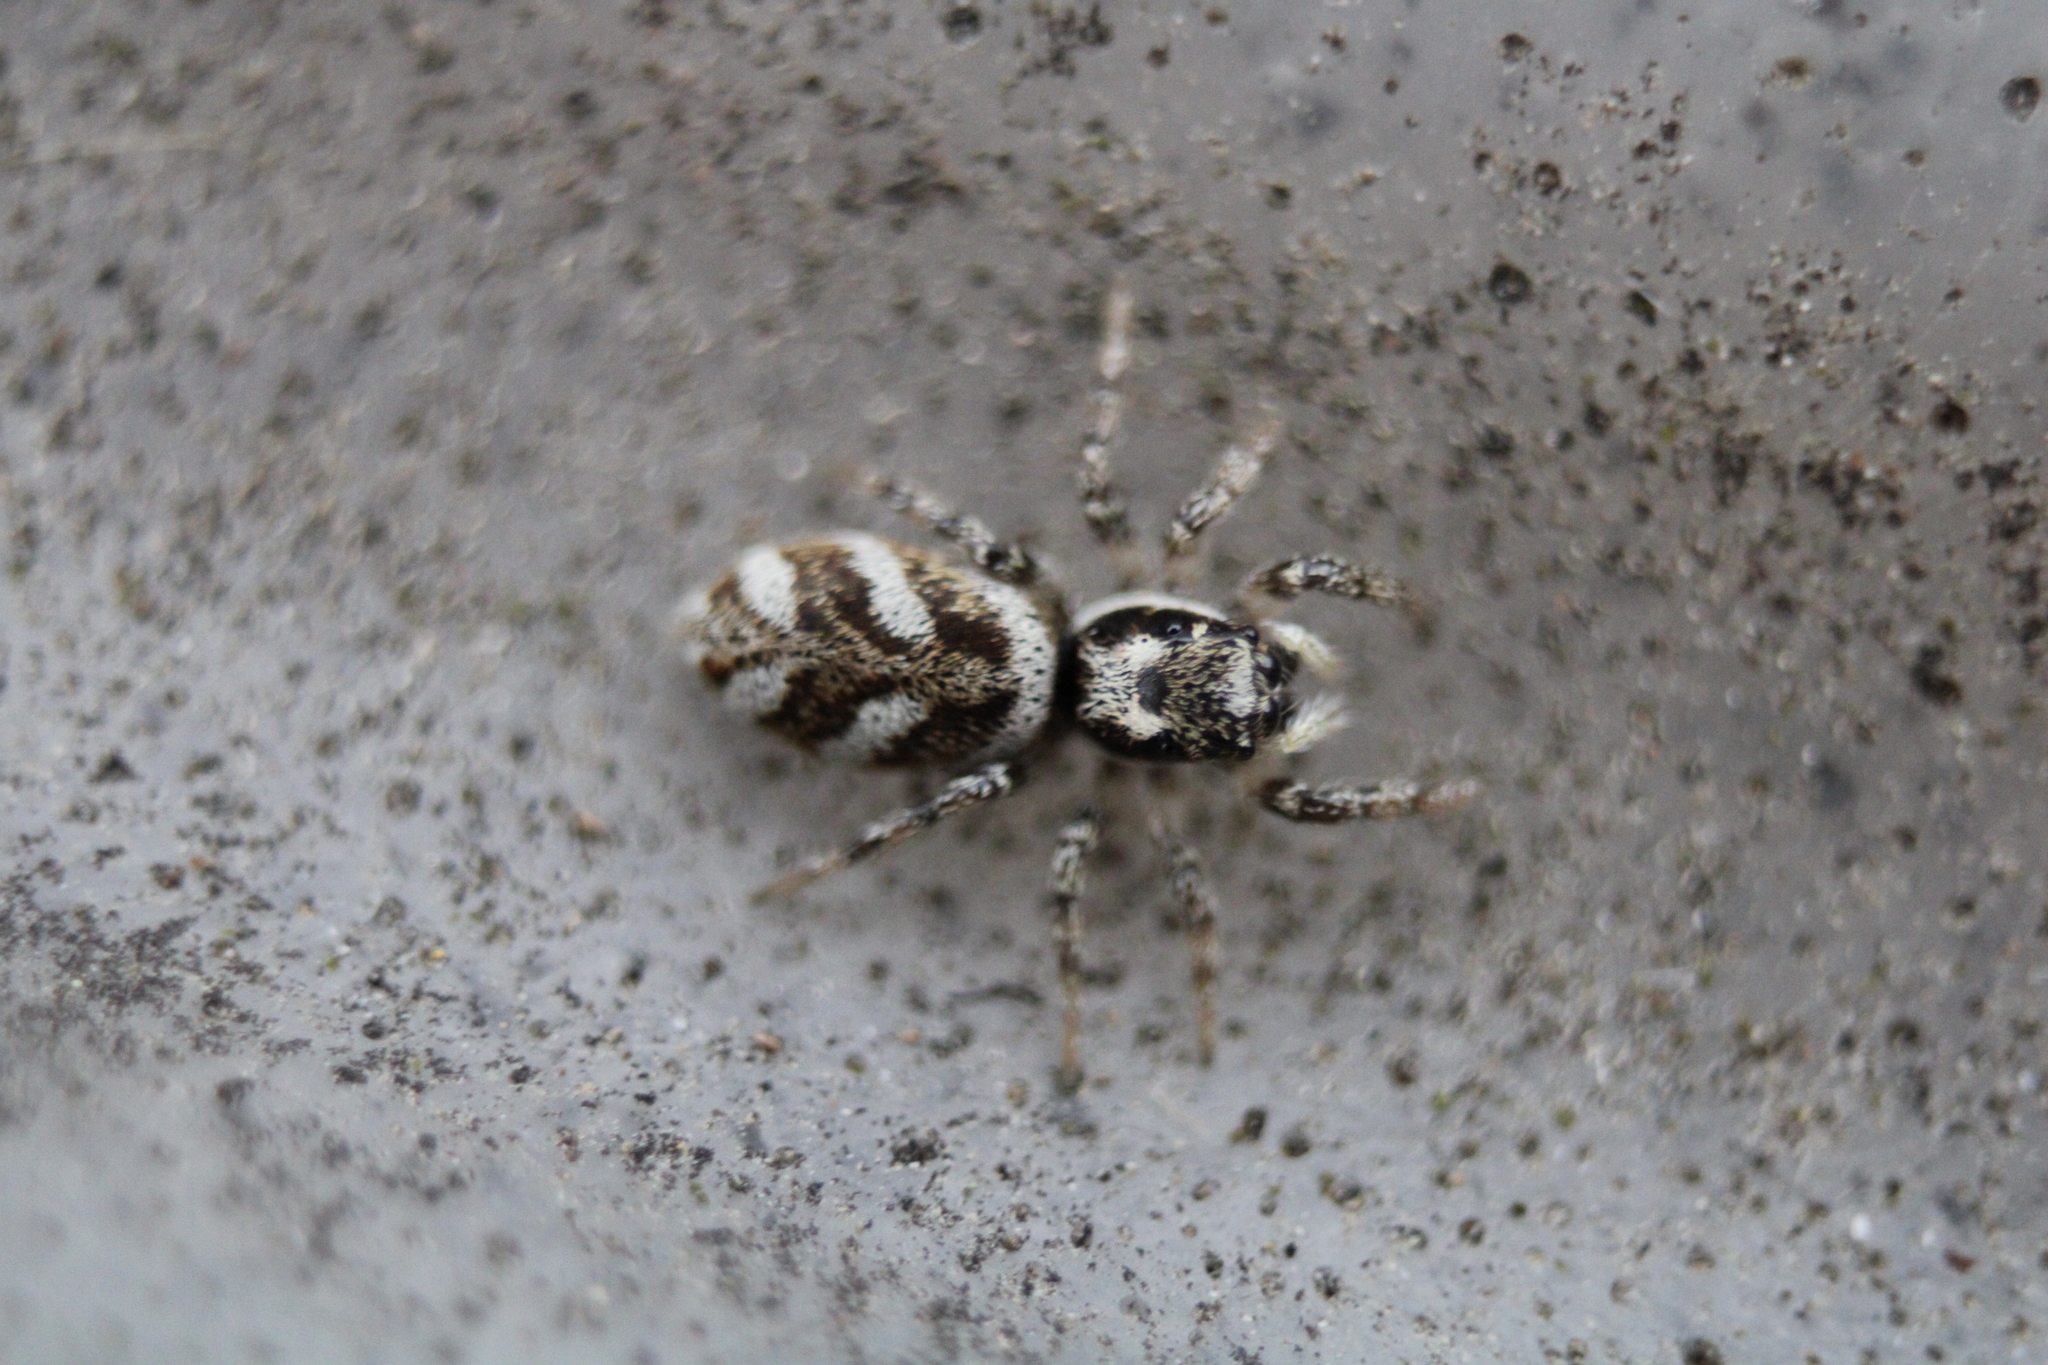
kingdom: Animalia
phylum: Arthropoda
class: Arachnida
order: Araneae
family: Salticidae
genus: Salticus
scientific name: Salticus scenicus
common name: Zebra jumper
